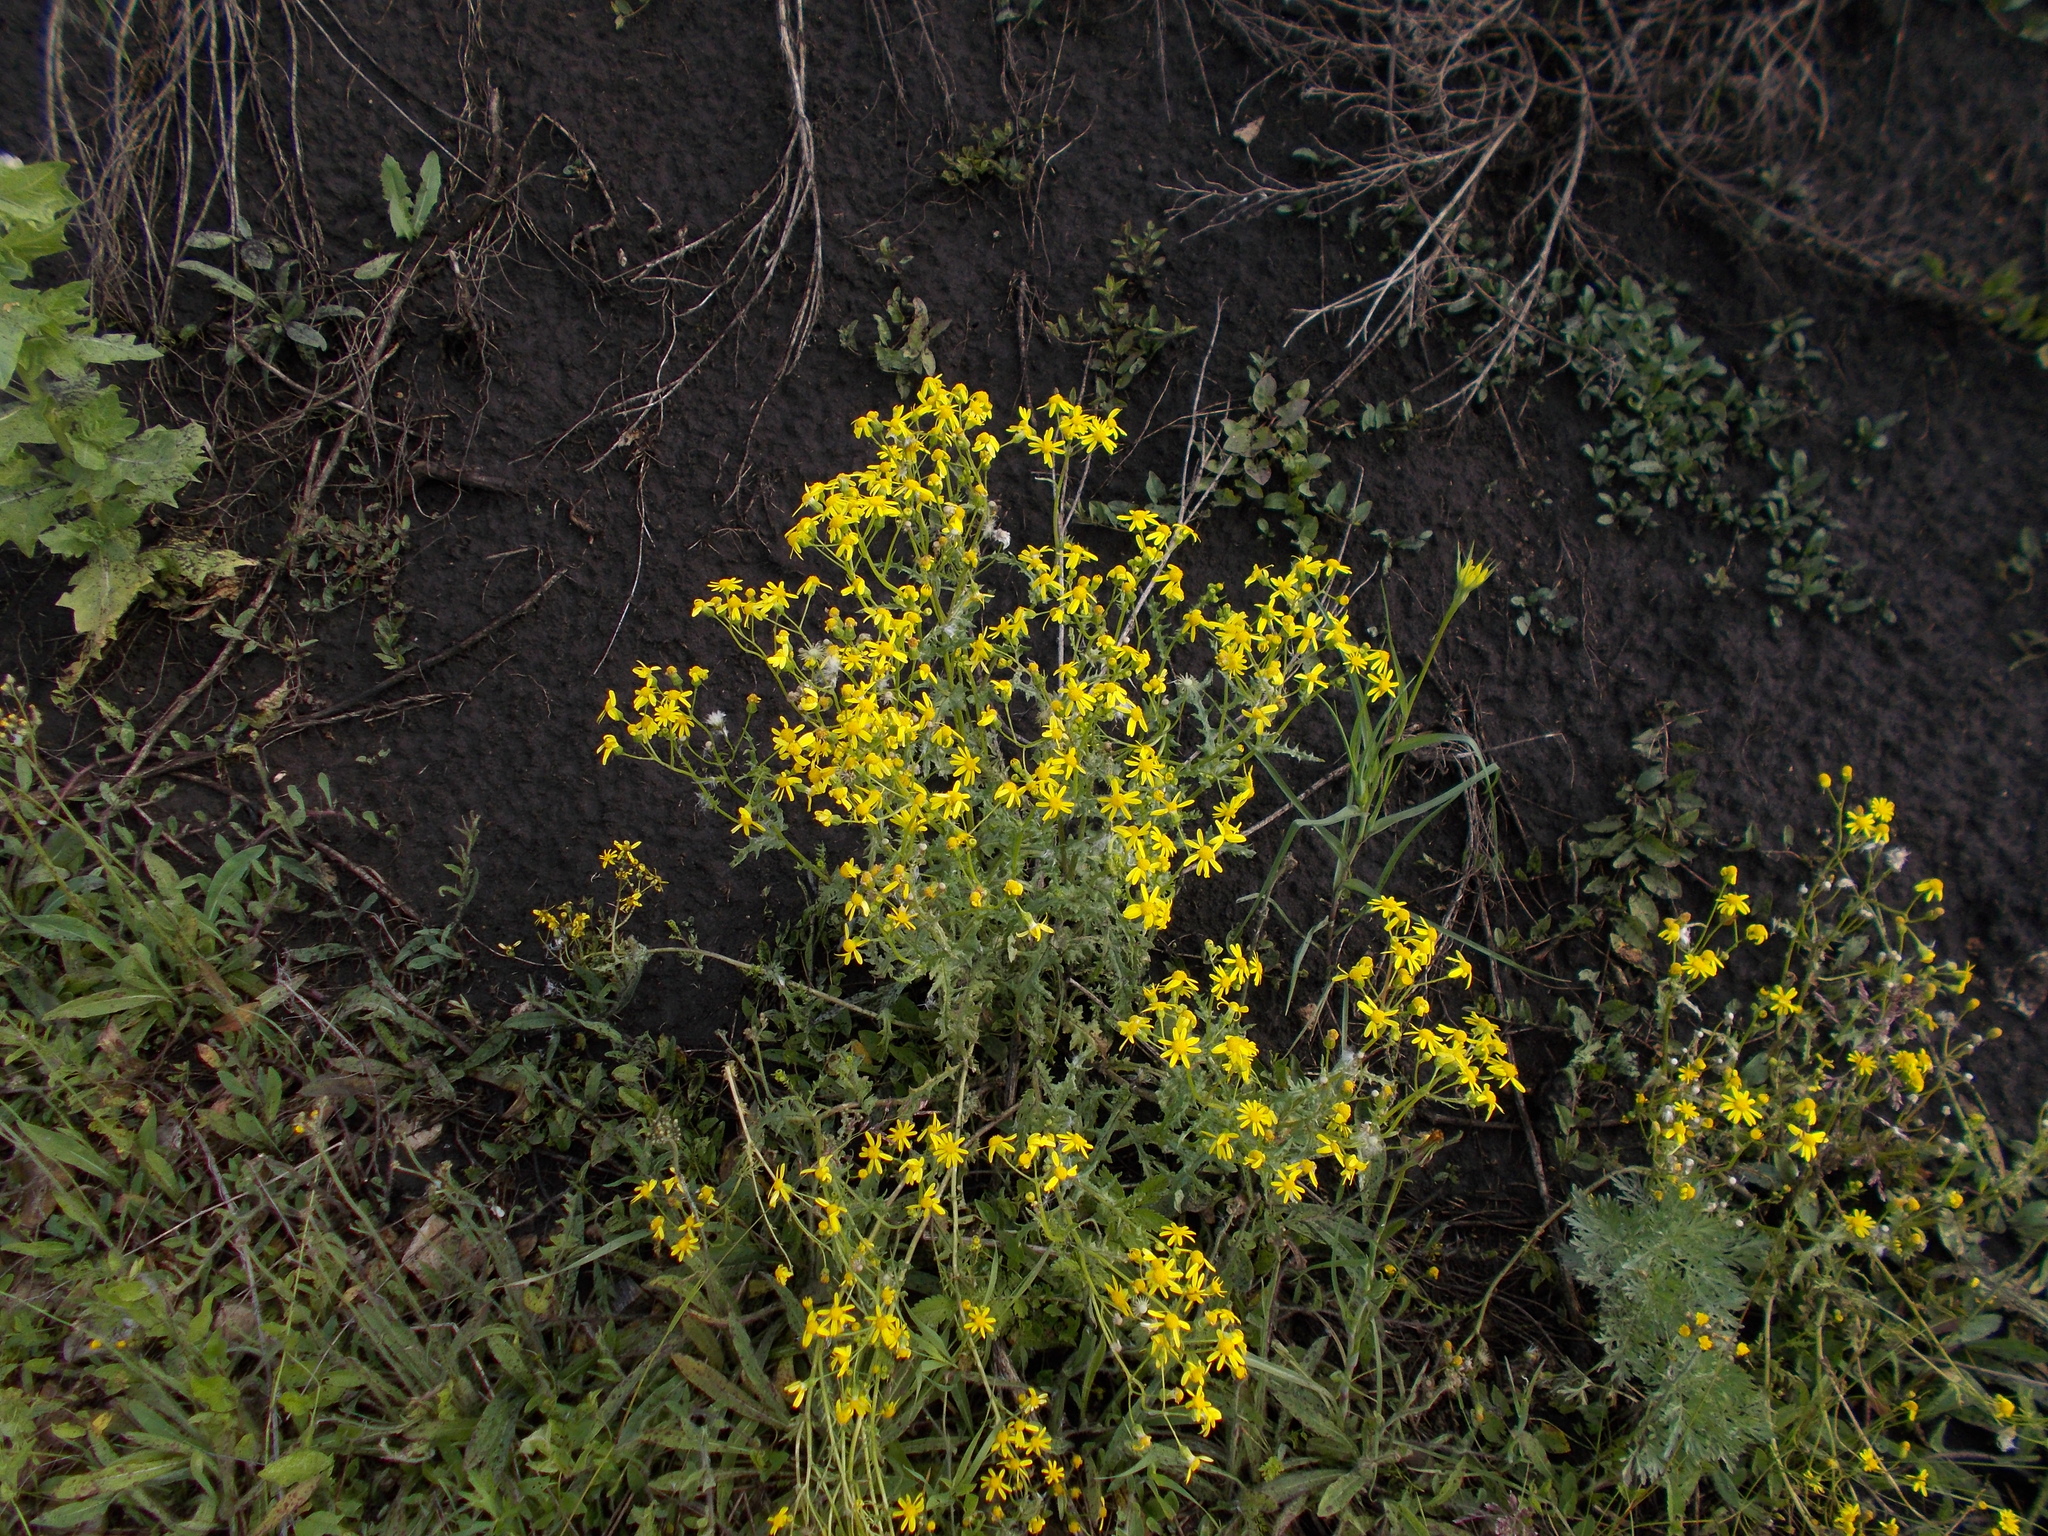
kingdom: Plantae
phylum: Tracheophyta
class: Magnoliopsida
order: Asterales
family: Asteraceae
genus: Senecio
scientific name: Senecio vernalis
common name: Eastern groundsel
